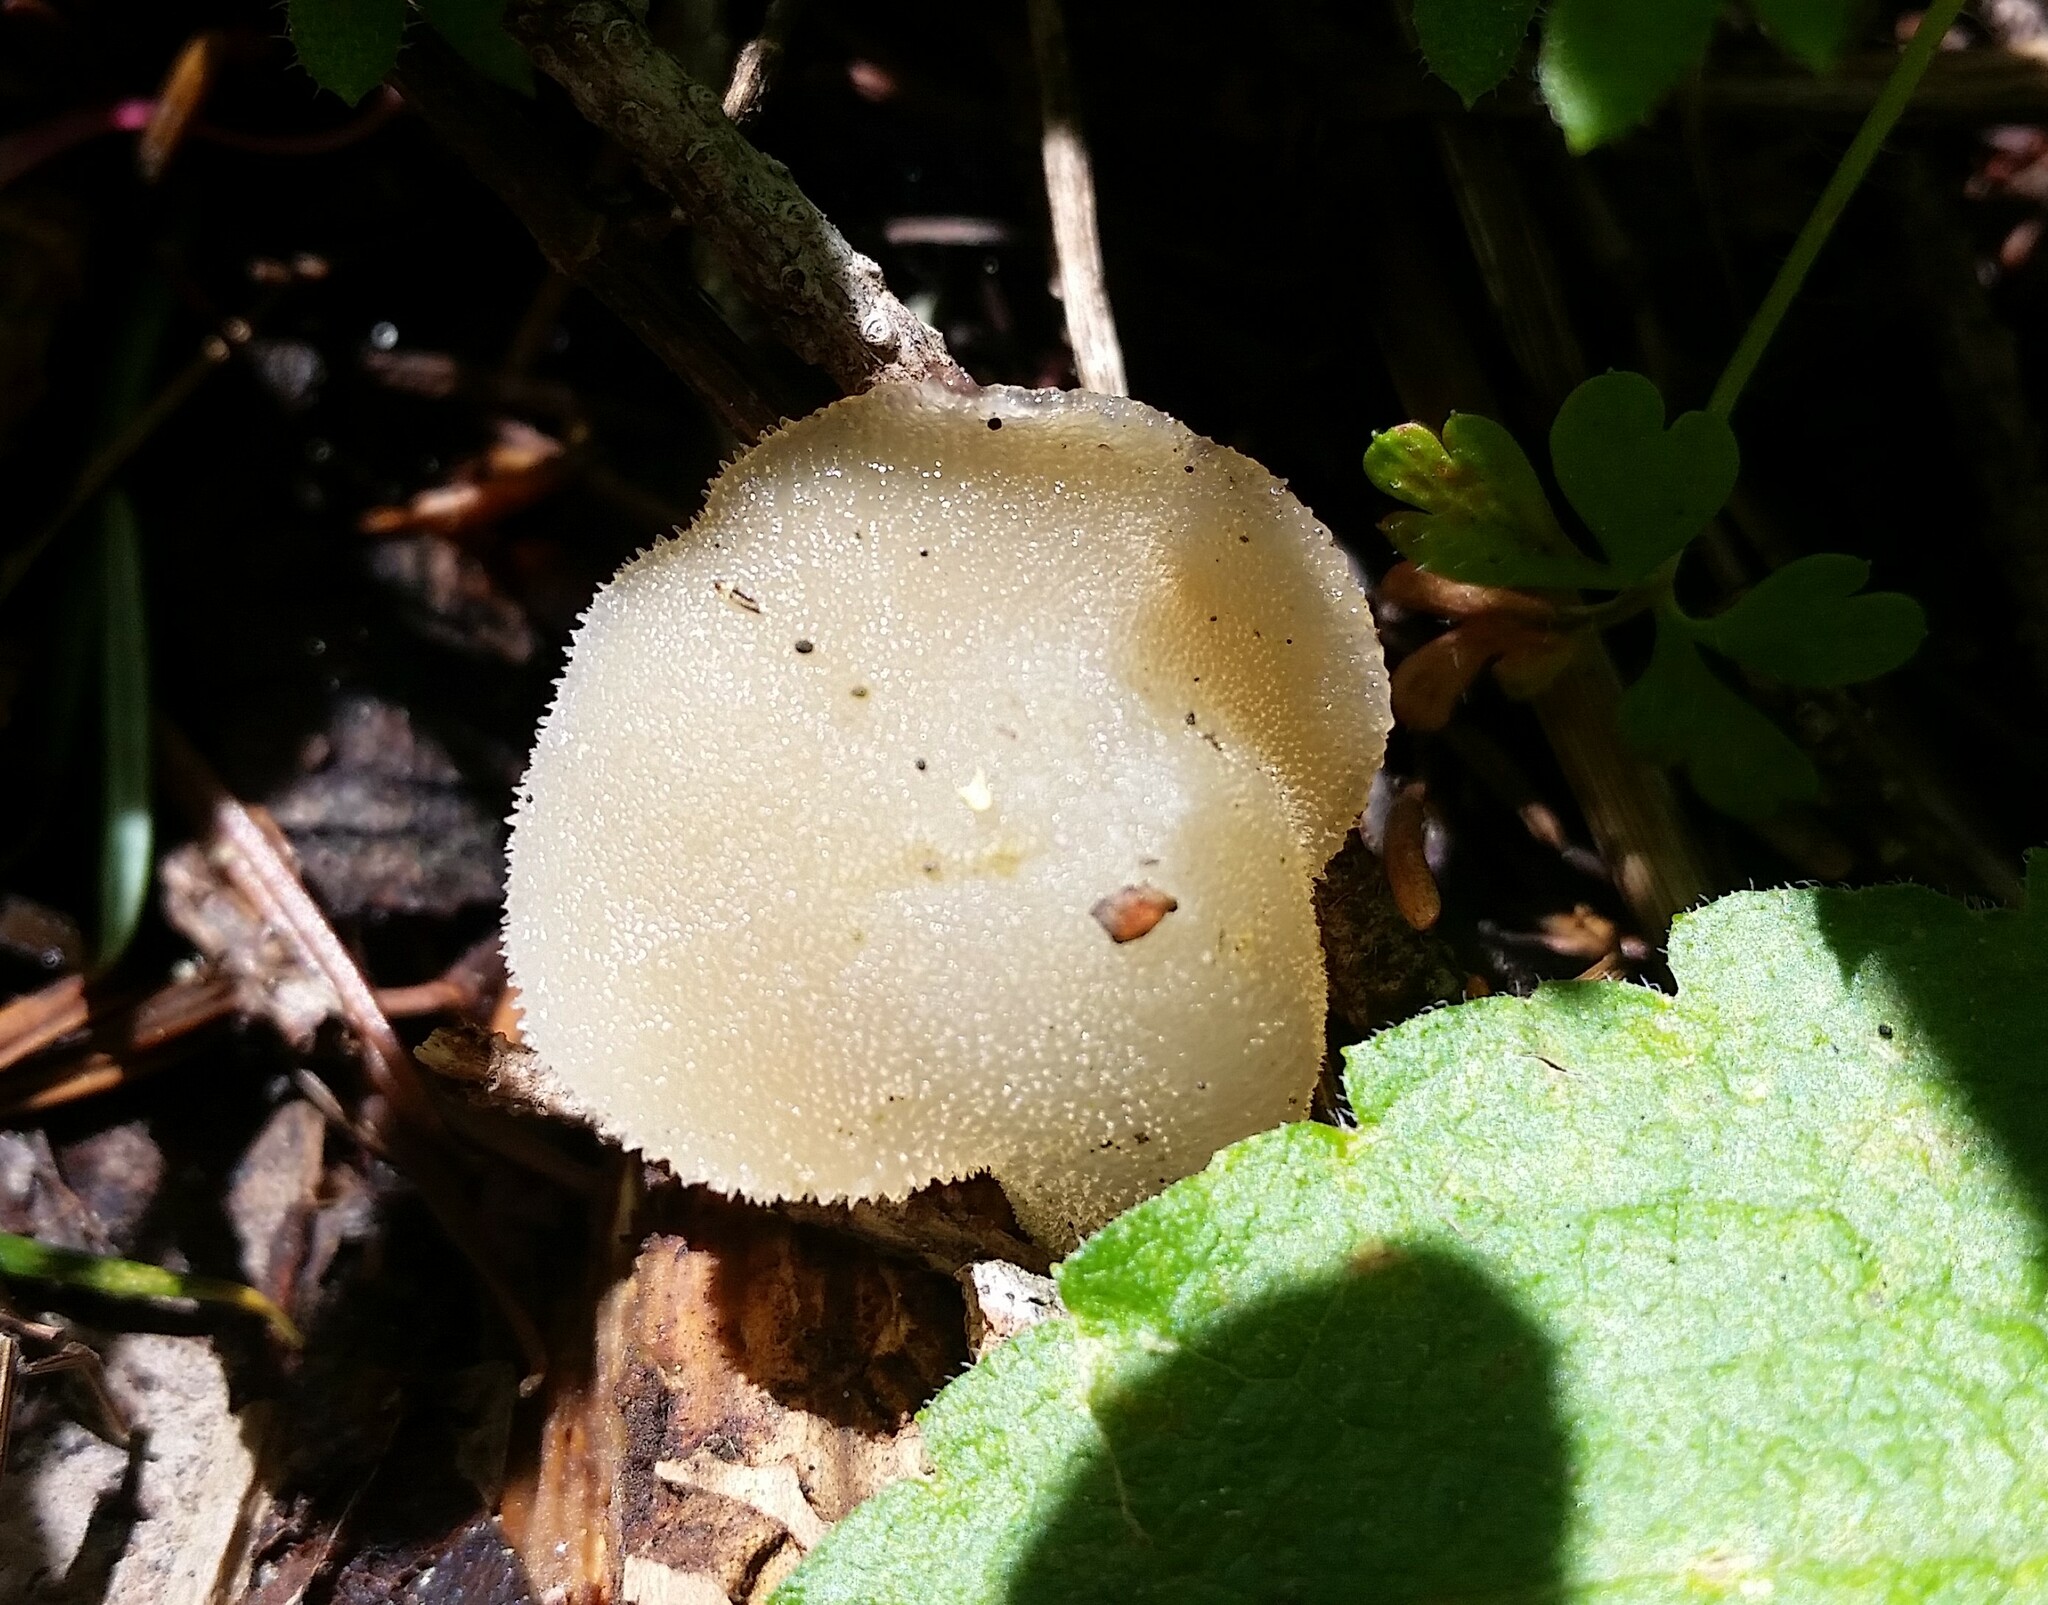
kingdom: Fungi
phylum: Basidiomycota
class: Agaricomycetes
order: Auriculariales
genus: Pseudohydnum
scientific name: Pseudohydnum gelatinosum
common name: Jelly tongue
